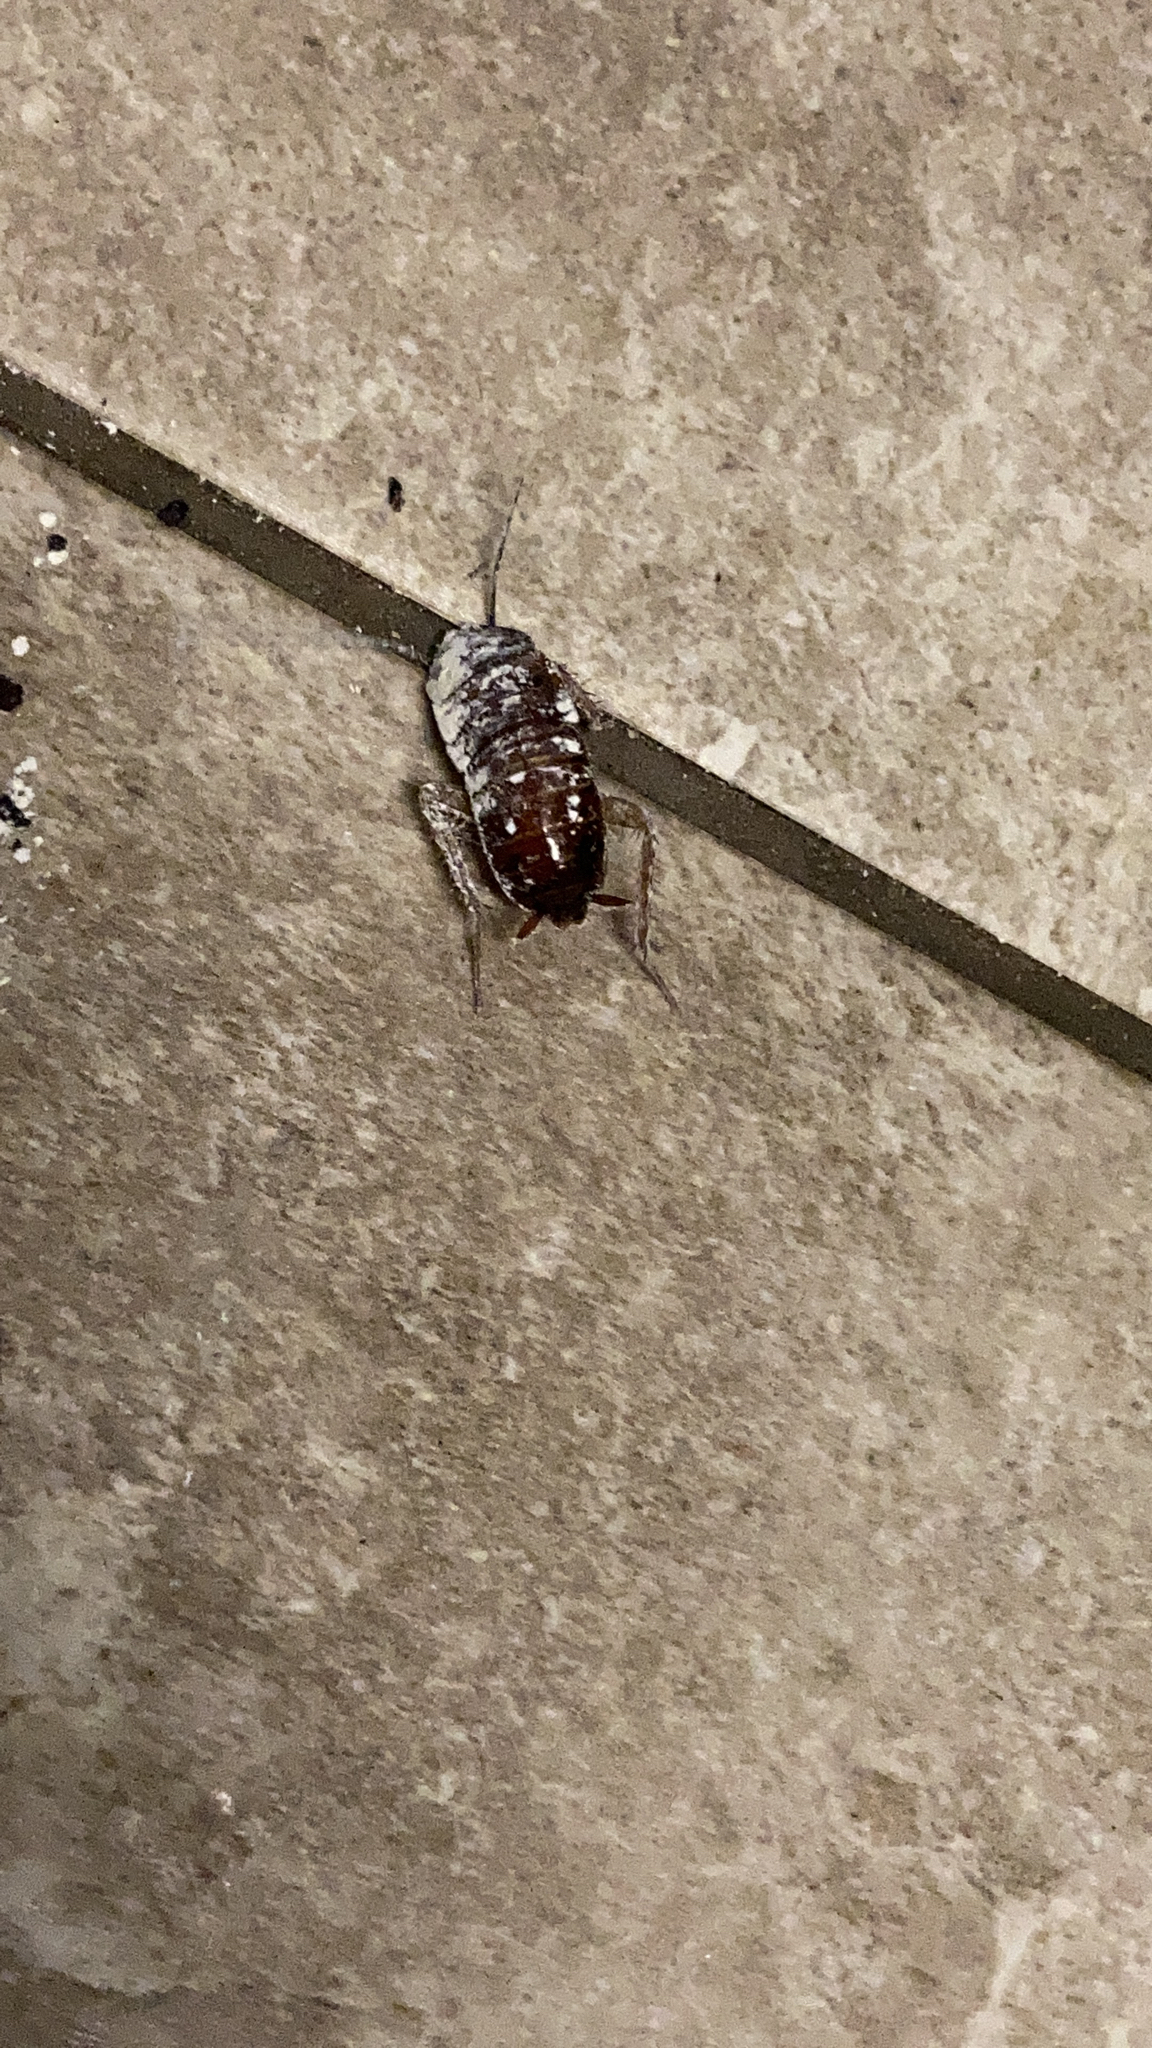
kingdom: Animalia
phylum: Arthropoda
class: Insecta
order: Blattodea
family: Blattidae
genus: Blatta
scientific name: Blatta orientalis
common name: Oriental cockroach
